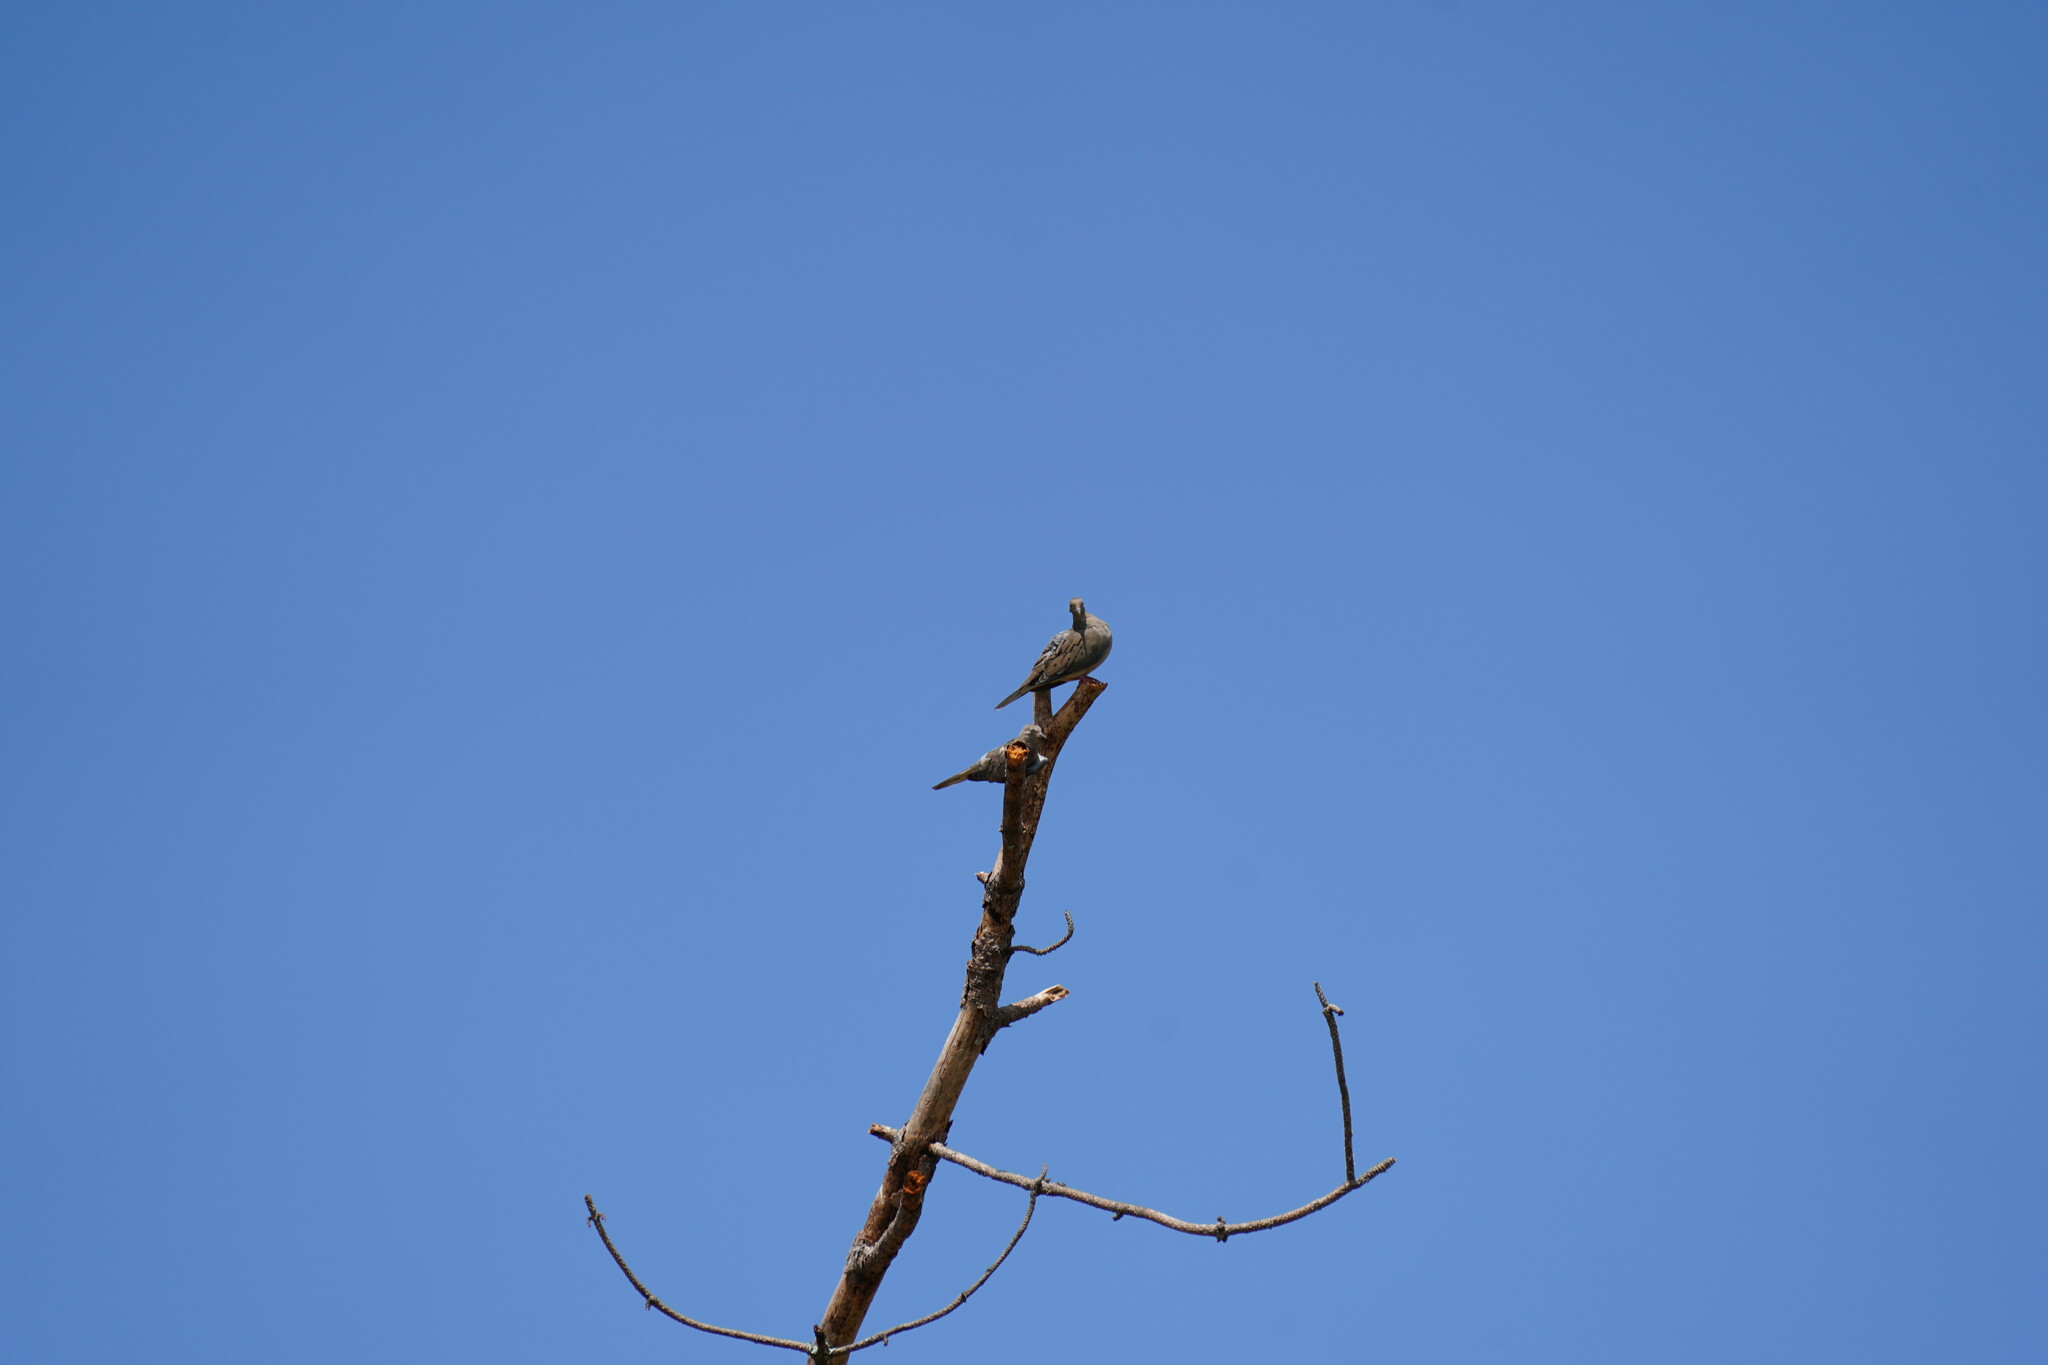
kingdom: Animalia
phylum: Chordata
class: Aves
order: Columbiformes
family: Columbidae
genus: Zenaida
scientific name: Zenaida macroura
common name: Mourning dove
